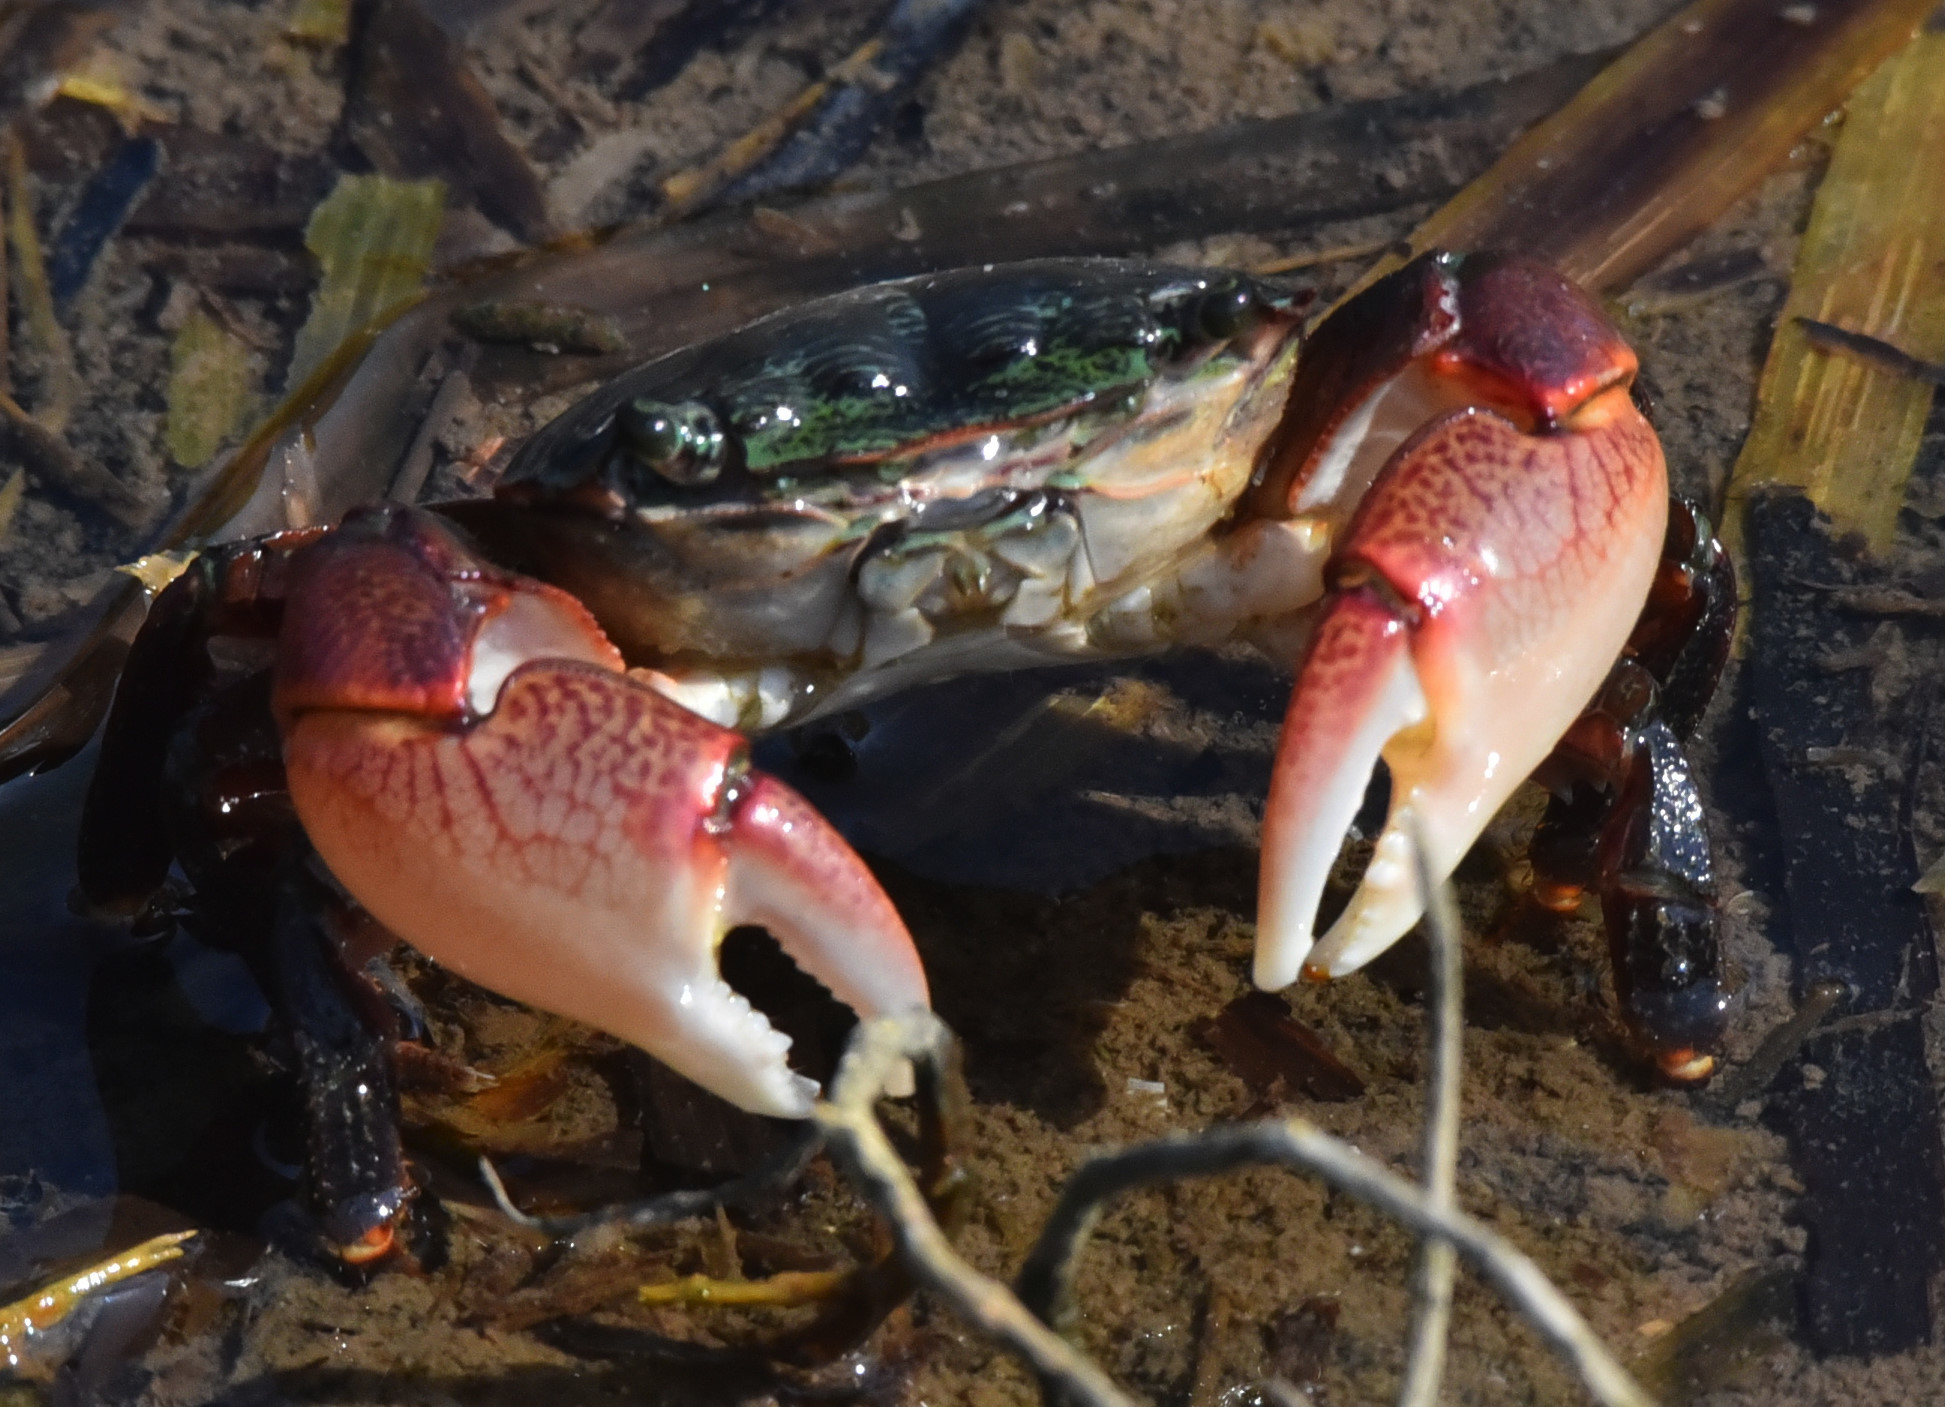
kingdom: Animalia
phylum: Arthropoda
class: Malacostraca
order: Decapoda
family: Grapsidae
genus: Pachygrapsus
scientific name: Pachygrapsus crassipes
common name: Striped shore crab
